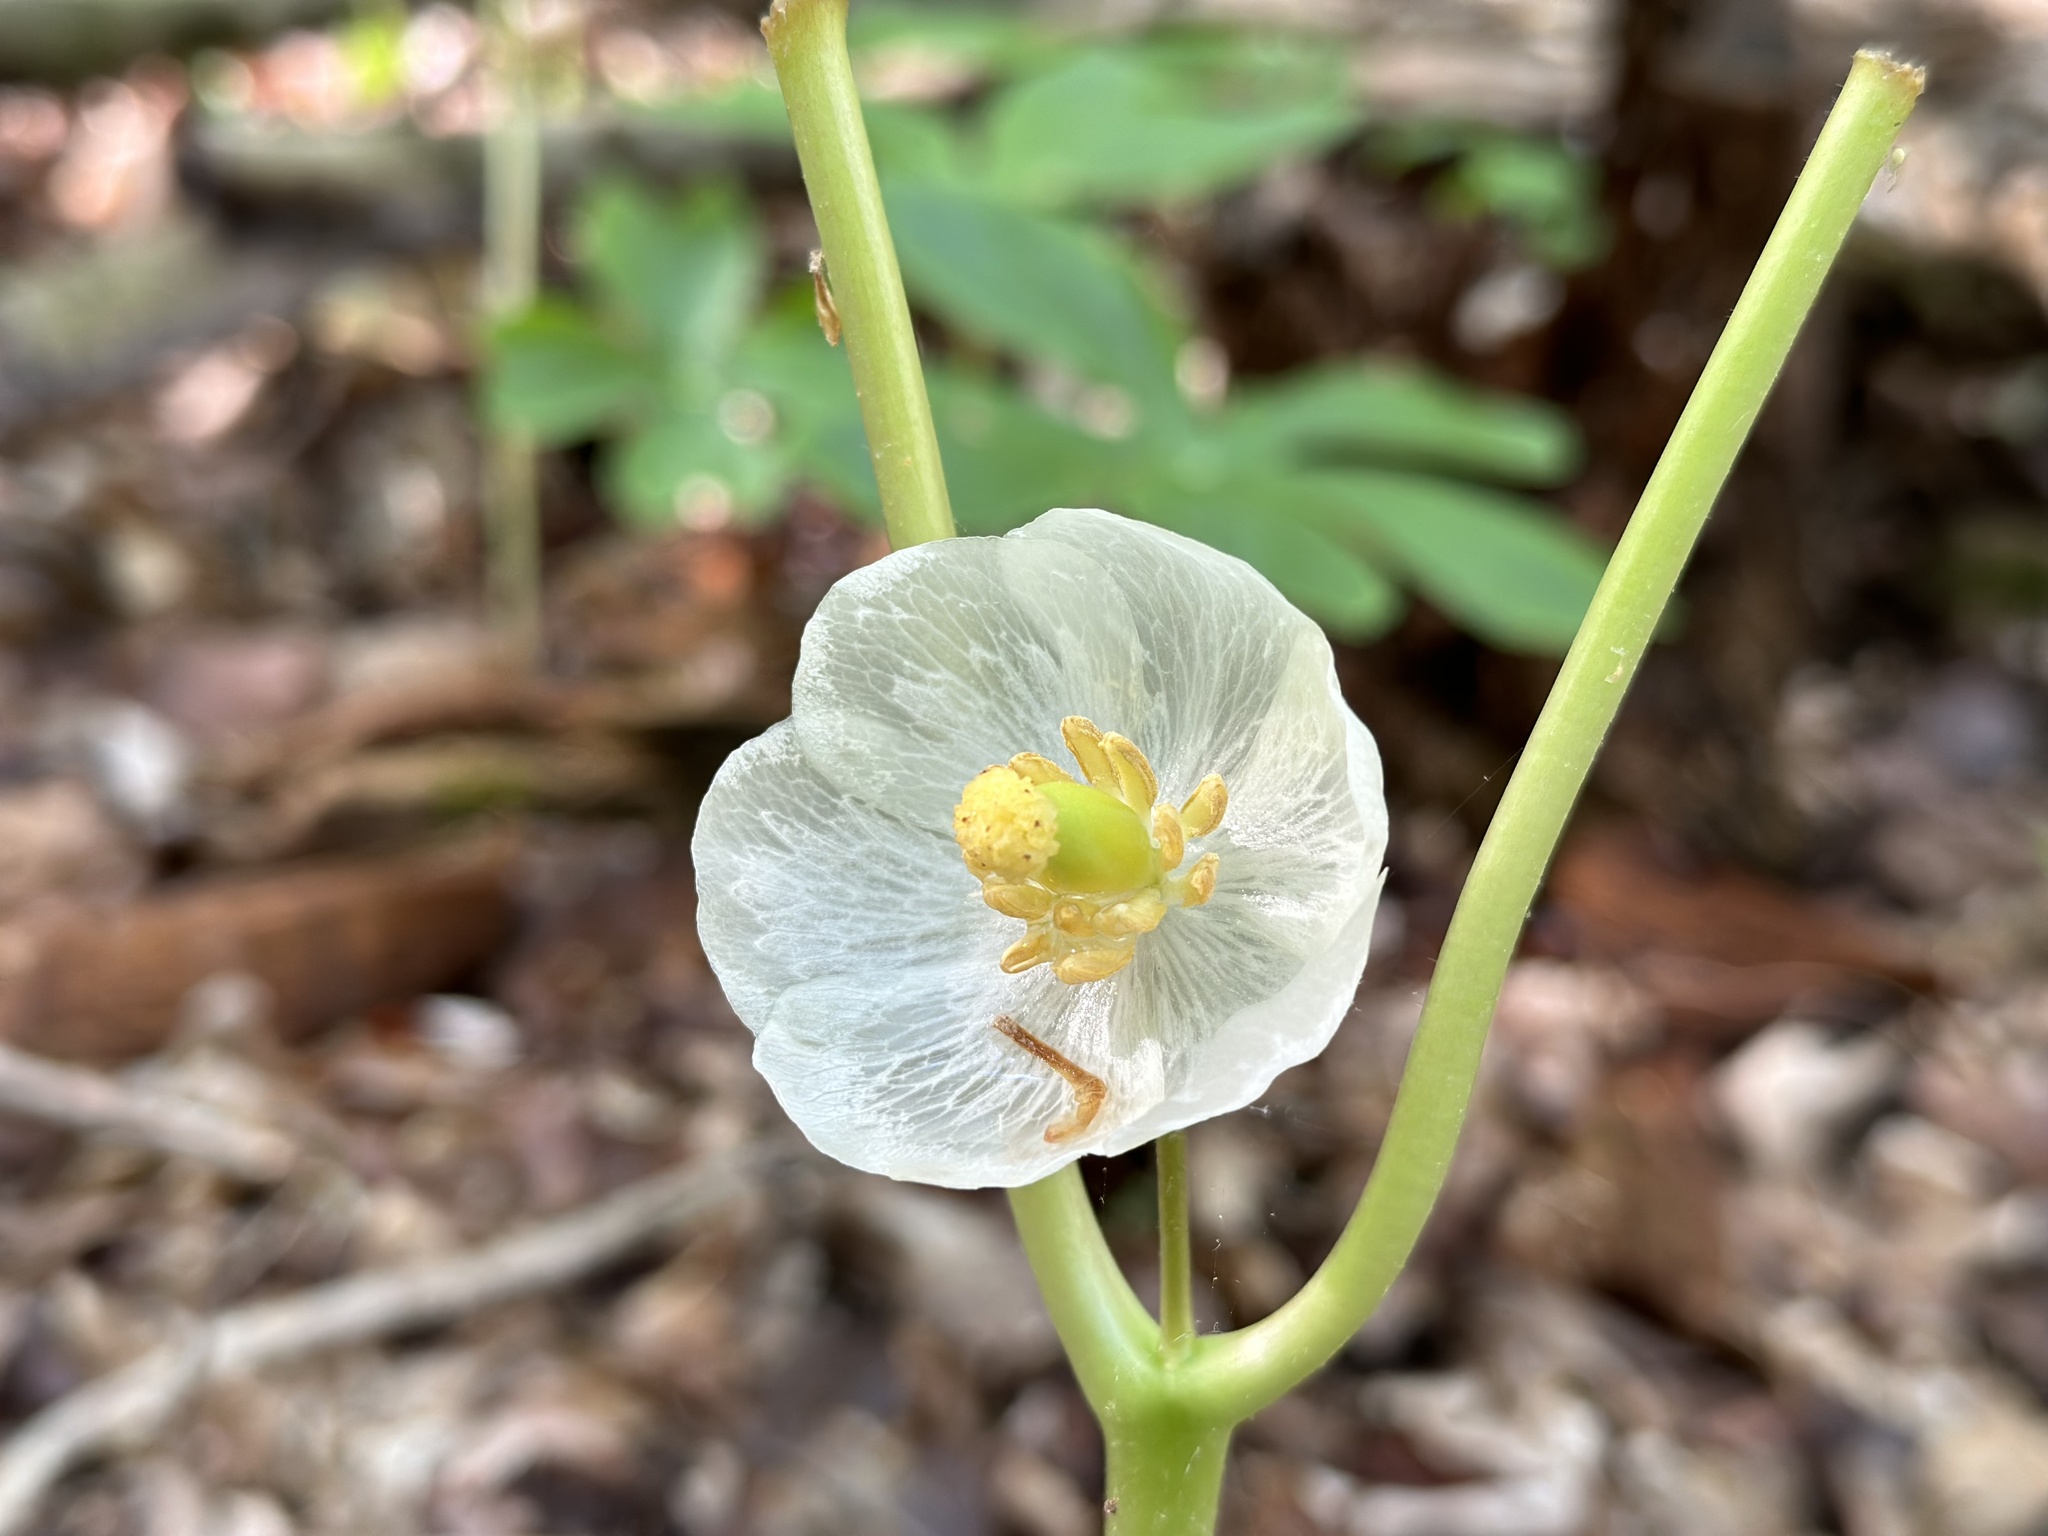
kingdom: Plantae
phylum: Tracheophyta
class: Magnoliopsida
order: Ranunculales
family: Berberidaceae
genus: Podophyllum
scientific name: Podophyllum peltatum
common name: Wild mandrake
